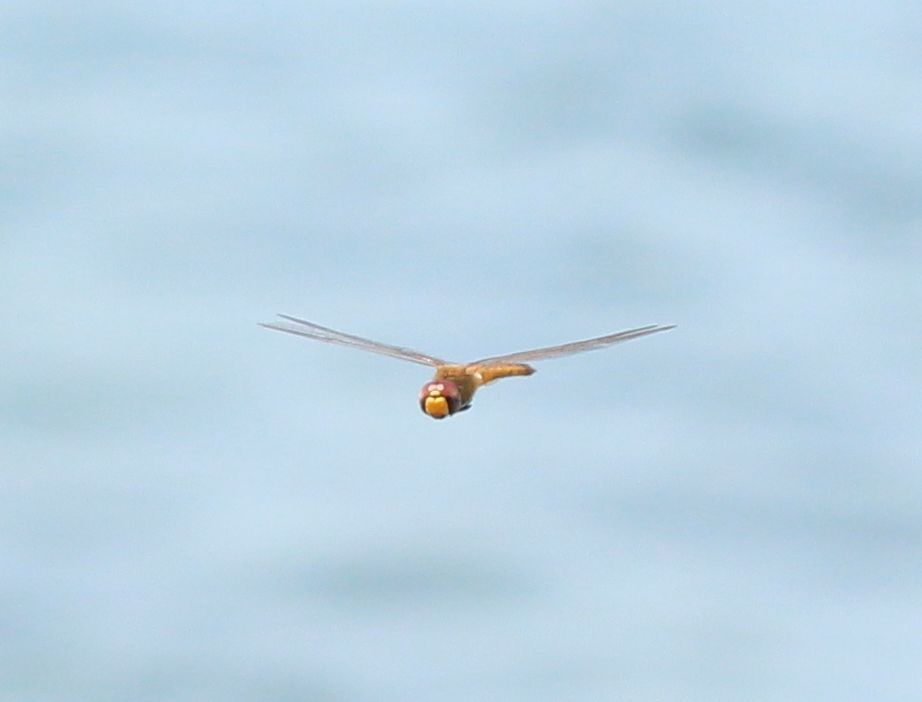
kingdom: Animalia
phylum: Arthropoda
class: Insecta
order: Odonata
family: Libellulidae
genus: Pantala
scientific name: Pantala flavescens
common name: Wandering glider
